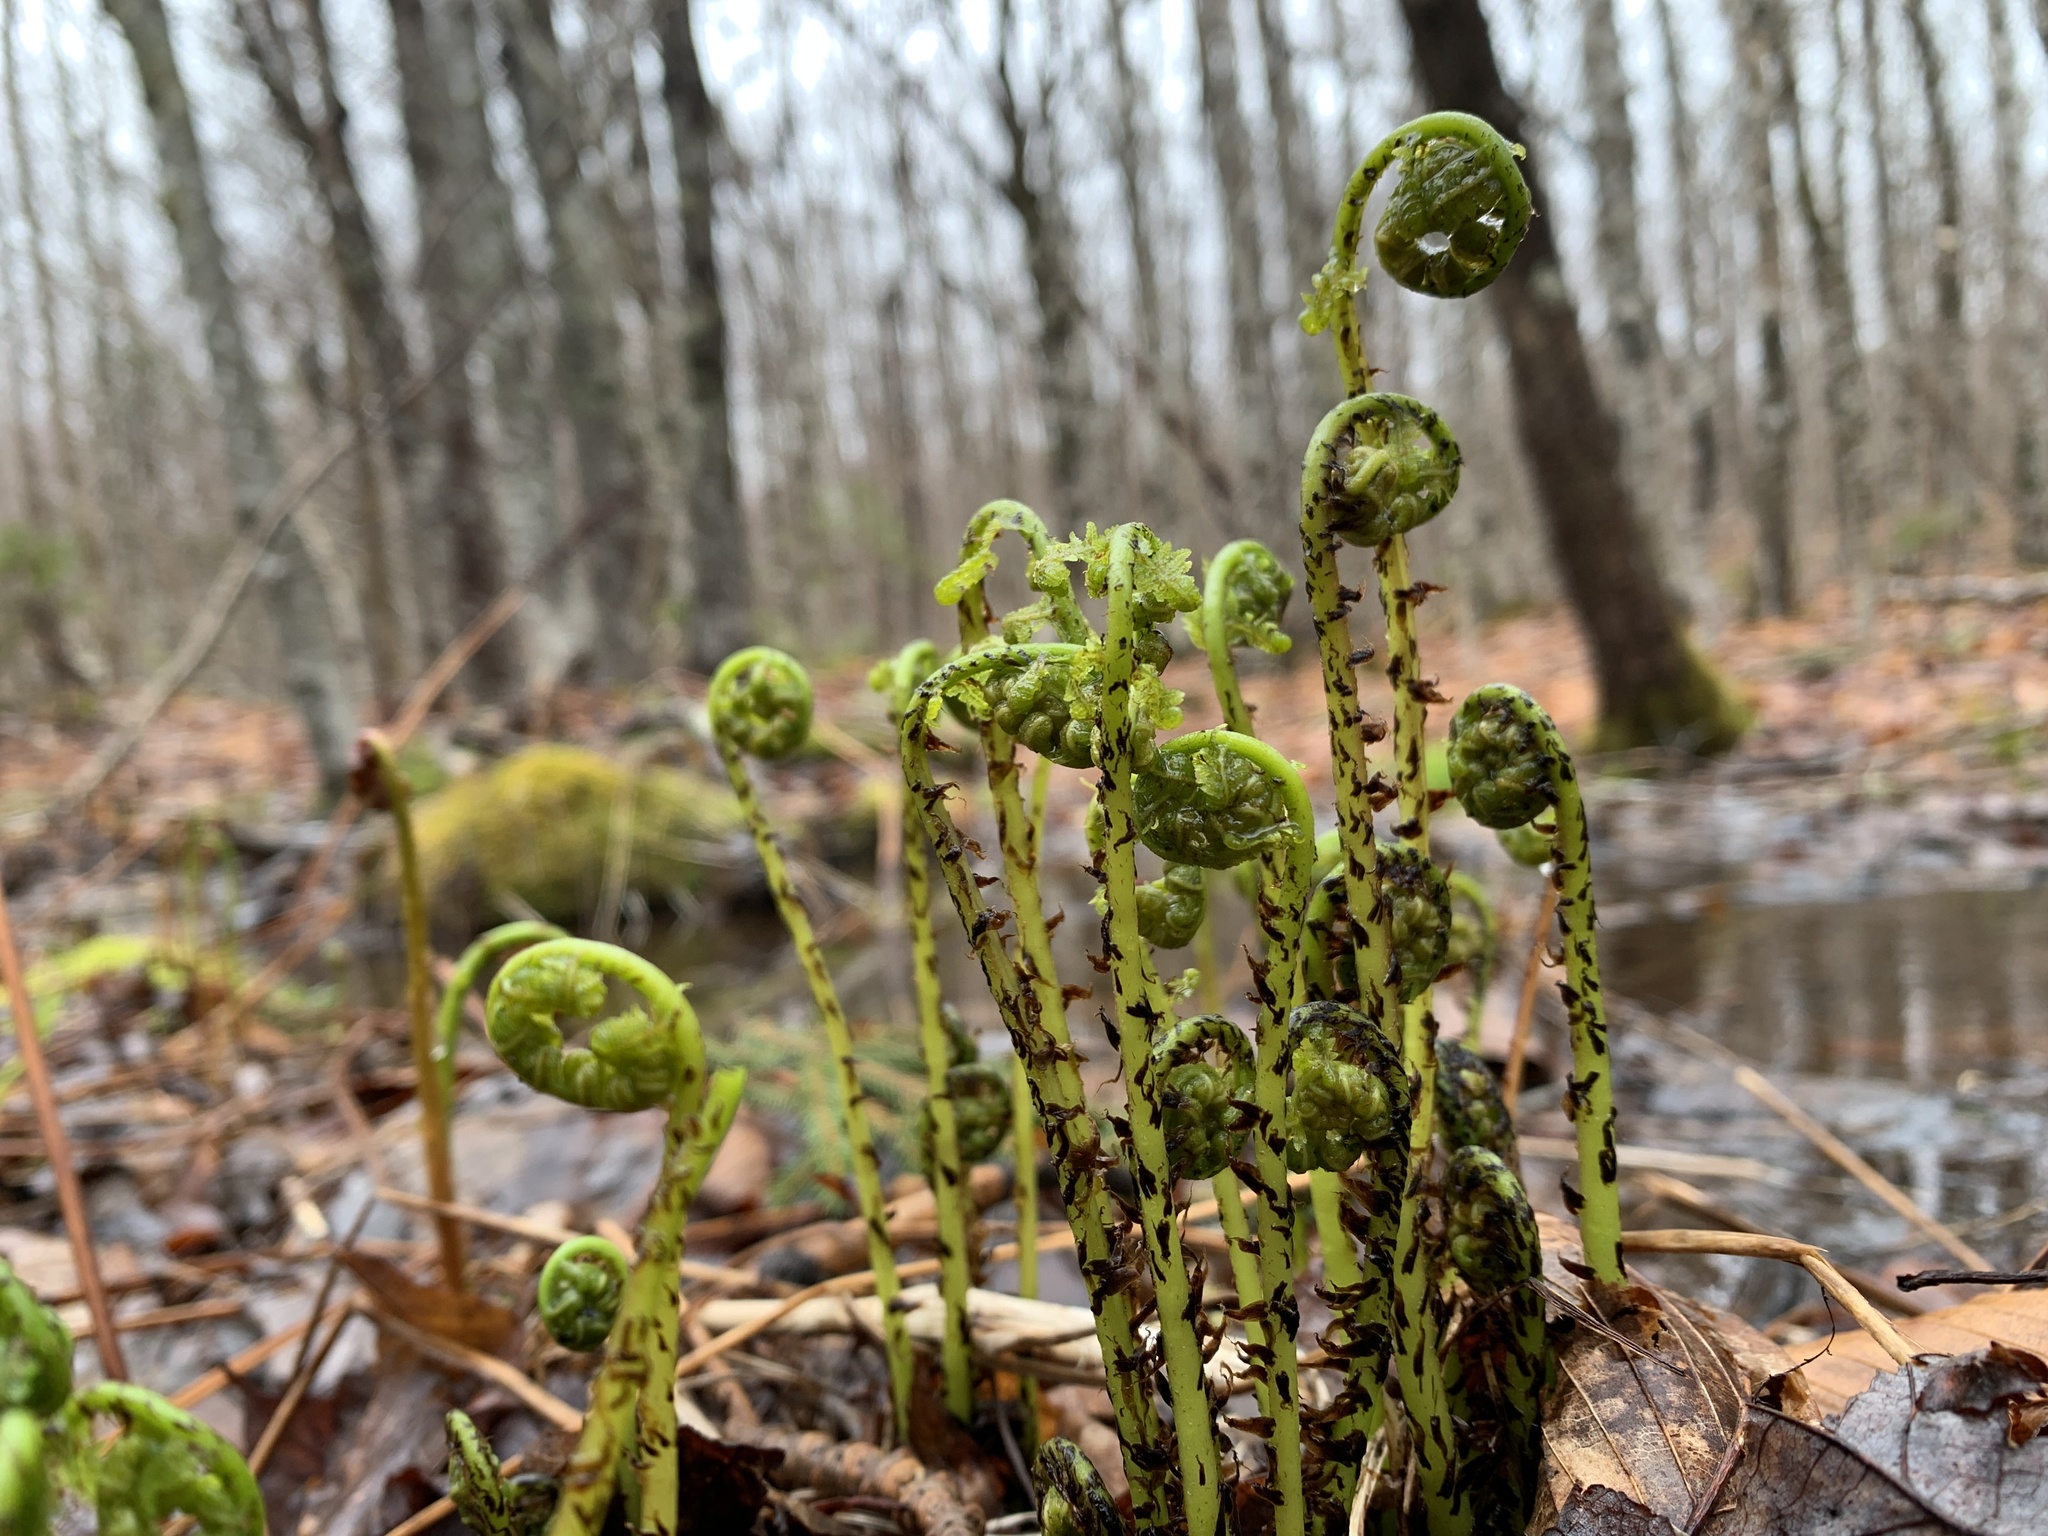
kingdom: Plantae
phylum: Tracheophyta
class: Polypodiopsida
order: Polypodiales
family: Athyriaceae
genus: Athyrium
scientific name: Athyrium angustum
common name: Northern lady fern
